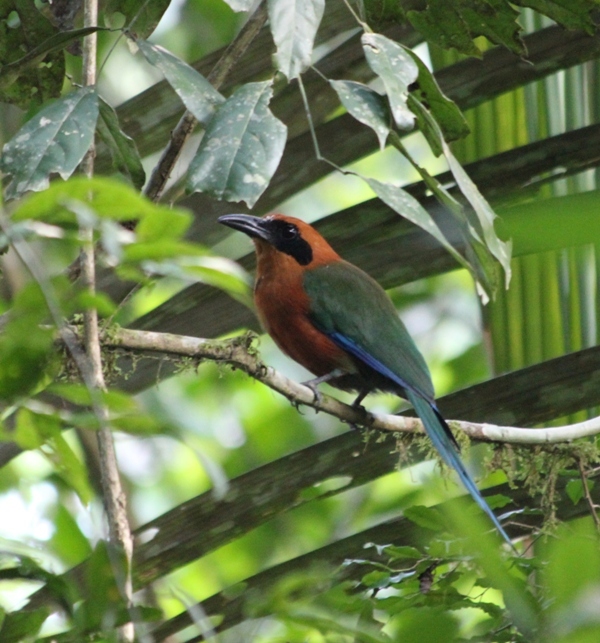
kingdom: Animalia
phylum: Chordata
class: Aves
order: Coraciiformes
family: Momotidae
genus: Baryphthengus
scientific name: Baryphthengus martii
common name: Rufous motmot
